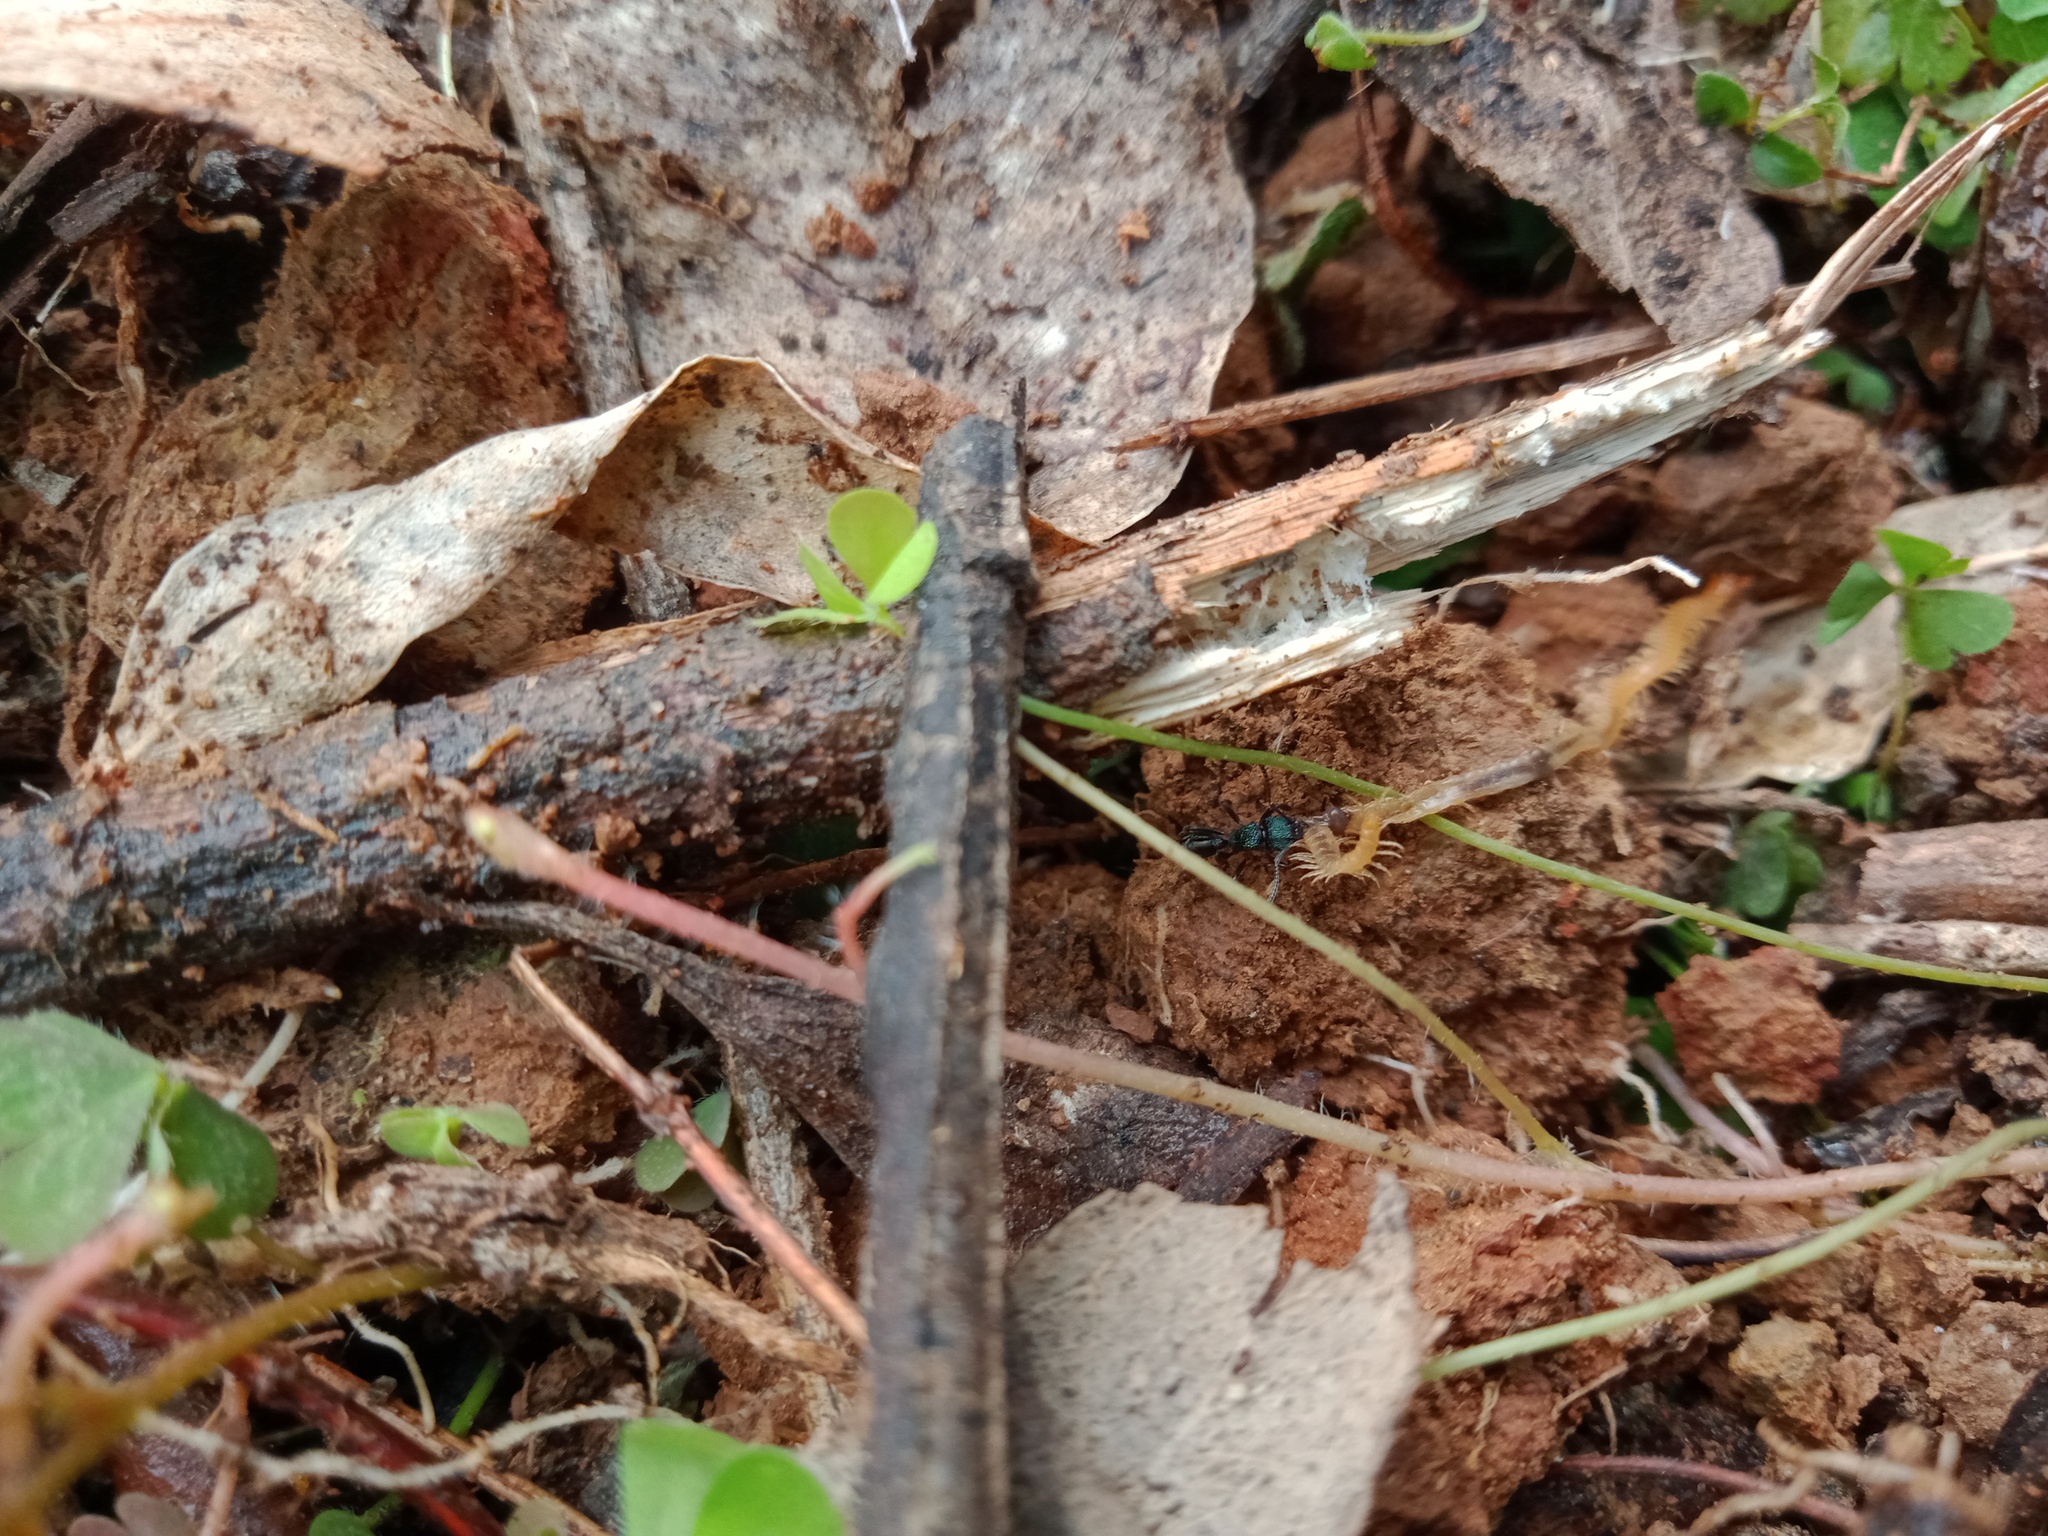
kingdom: Animalia
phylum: Arthropoda
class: Insecta
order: Hymenoptera
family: Formicidae
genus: Rhytidoponera
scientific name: Rhytidoponera metallica
